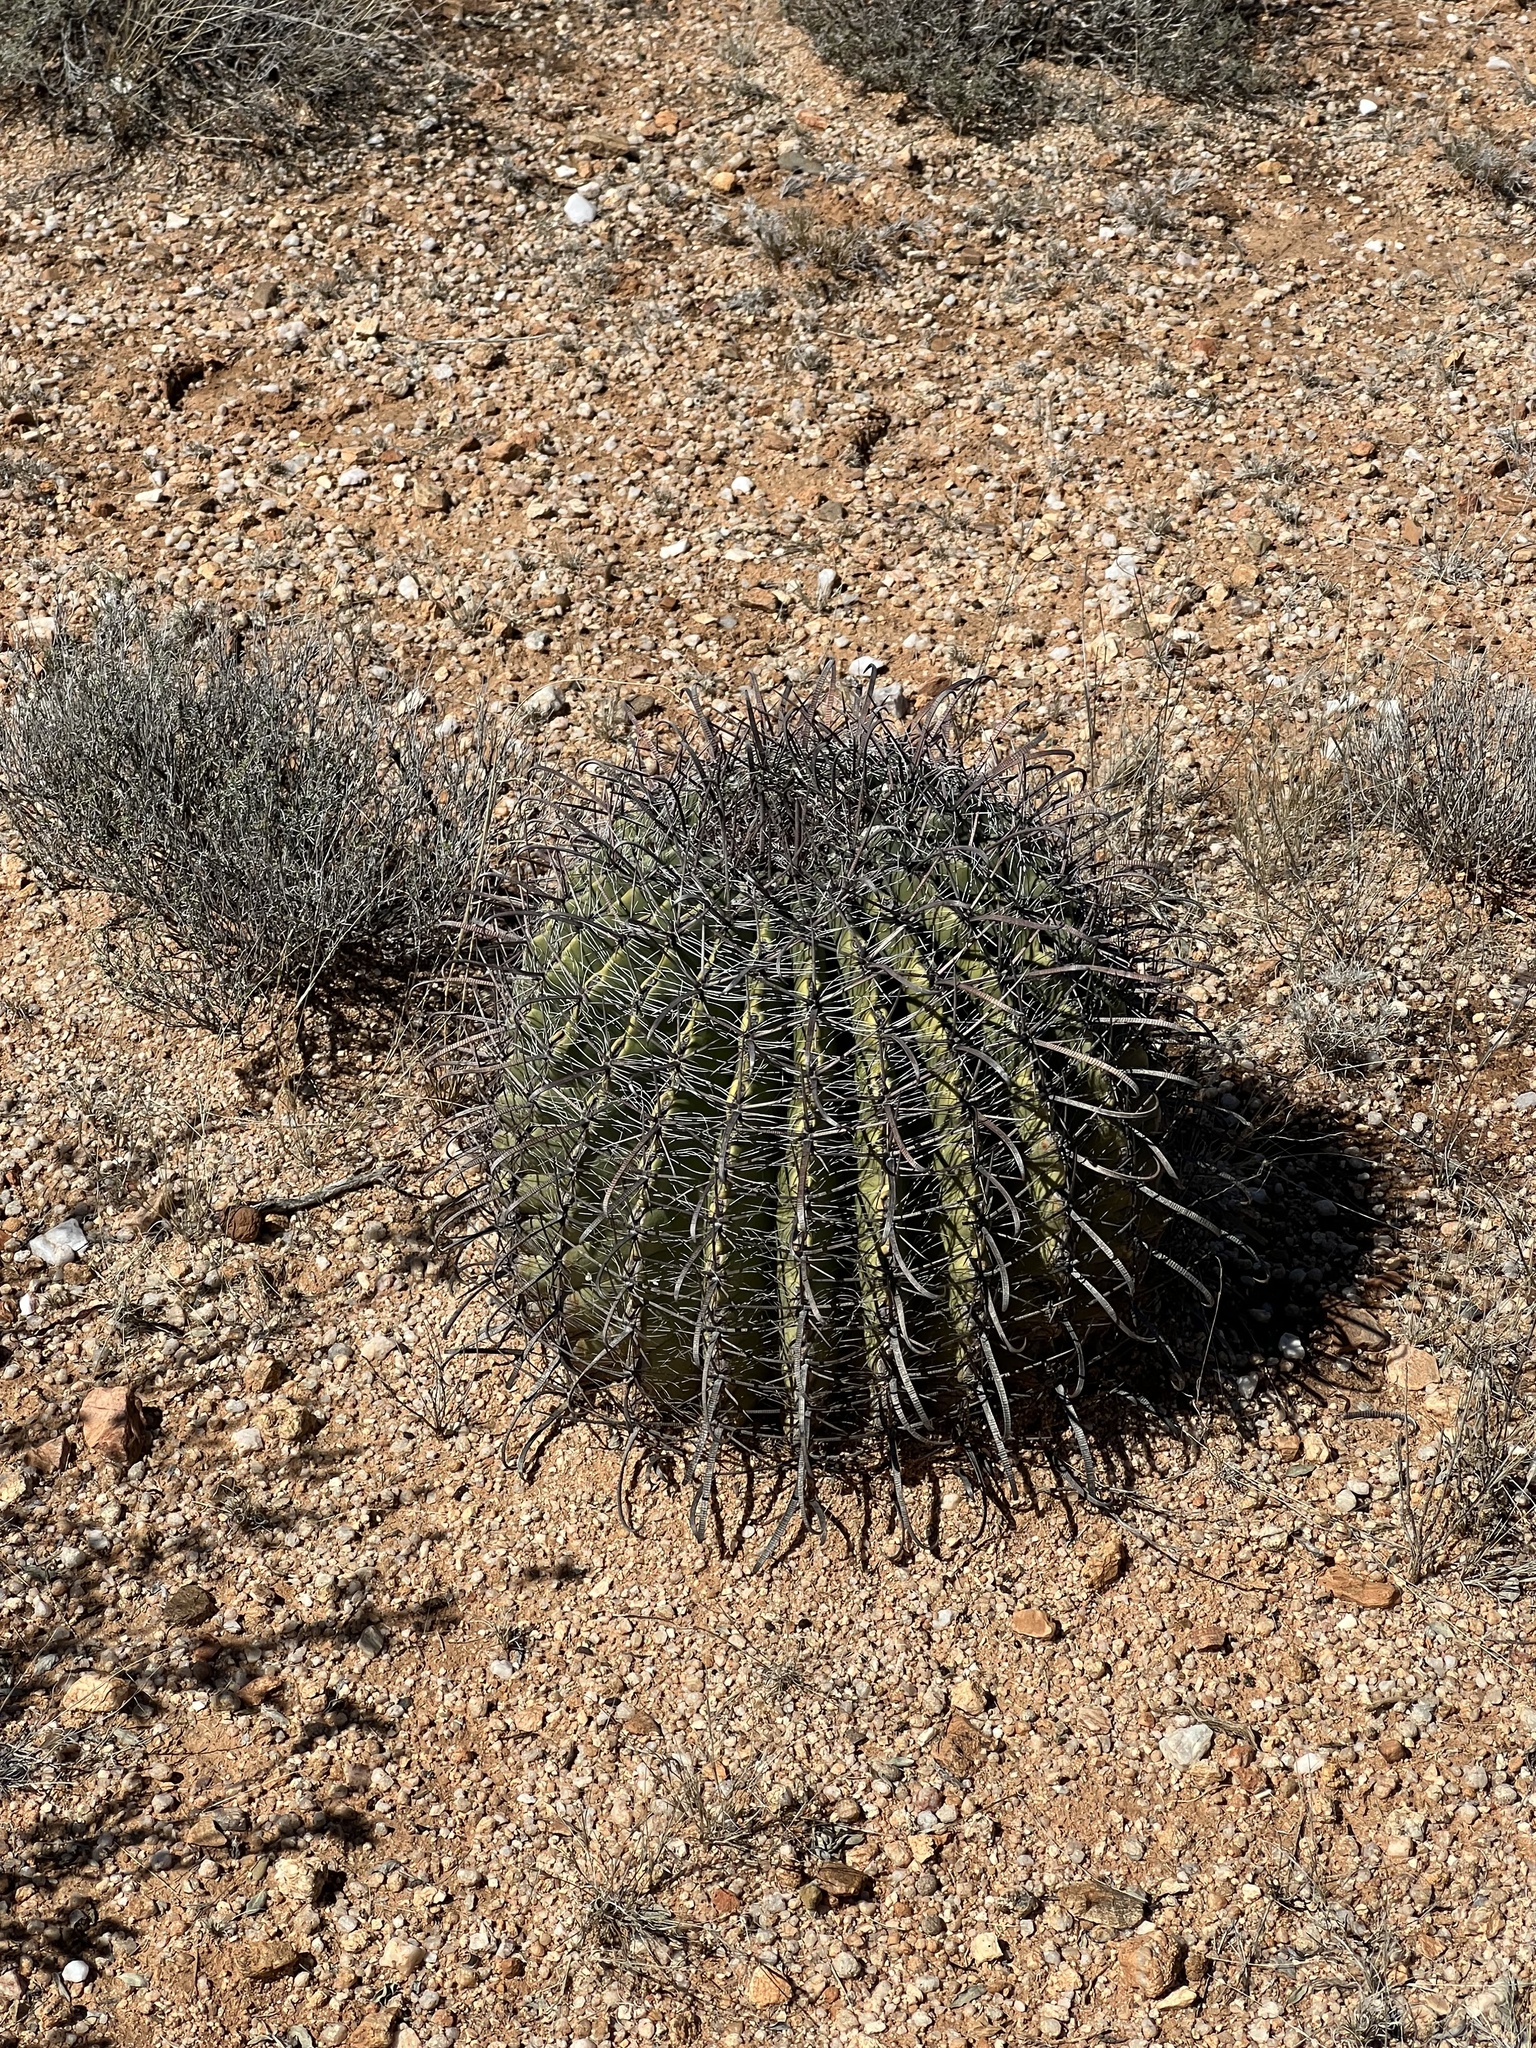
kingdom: Plantae
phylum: Tracheophyta
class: Magnoliopsida
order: Caryophyllales
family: Cactaceae
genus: Ferocactus
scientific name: Ferocactus wislizeni
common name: Candy barrel cactus
